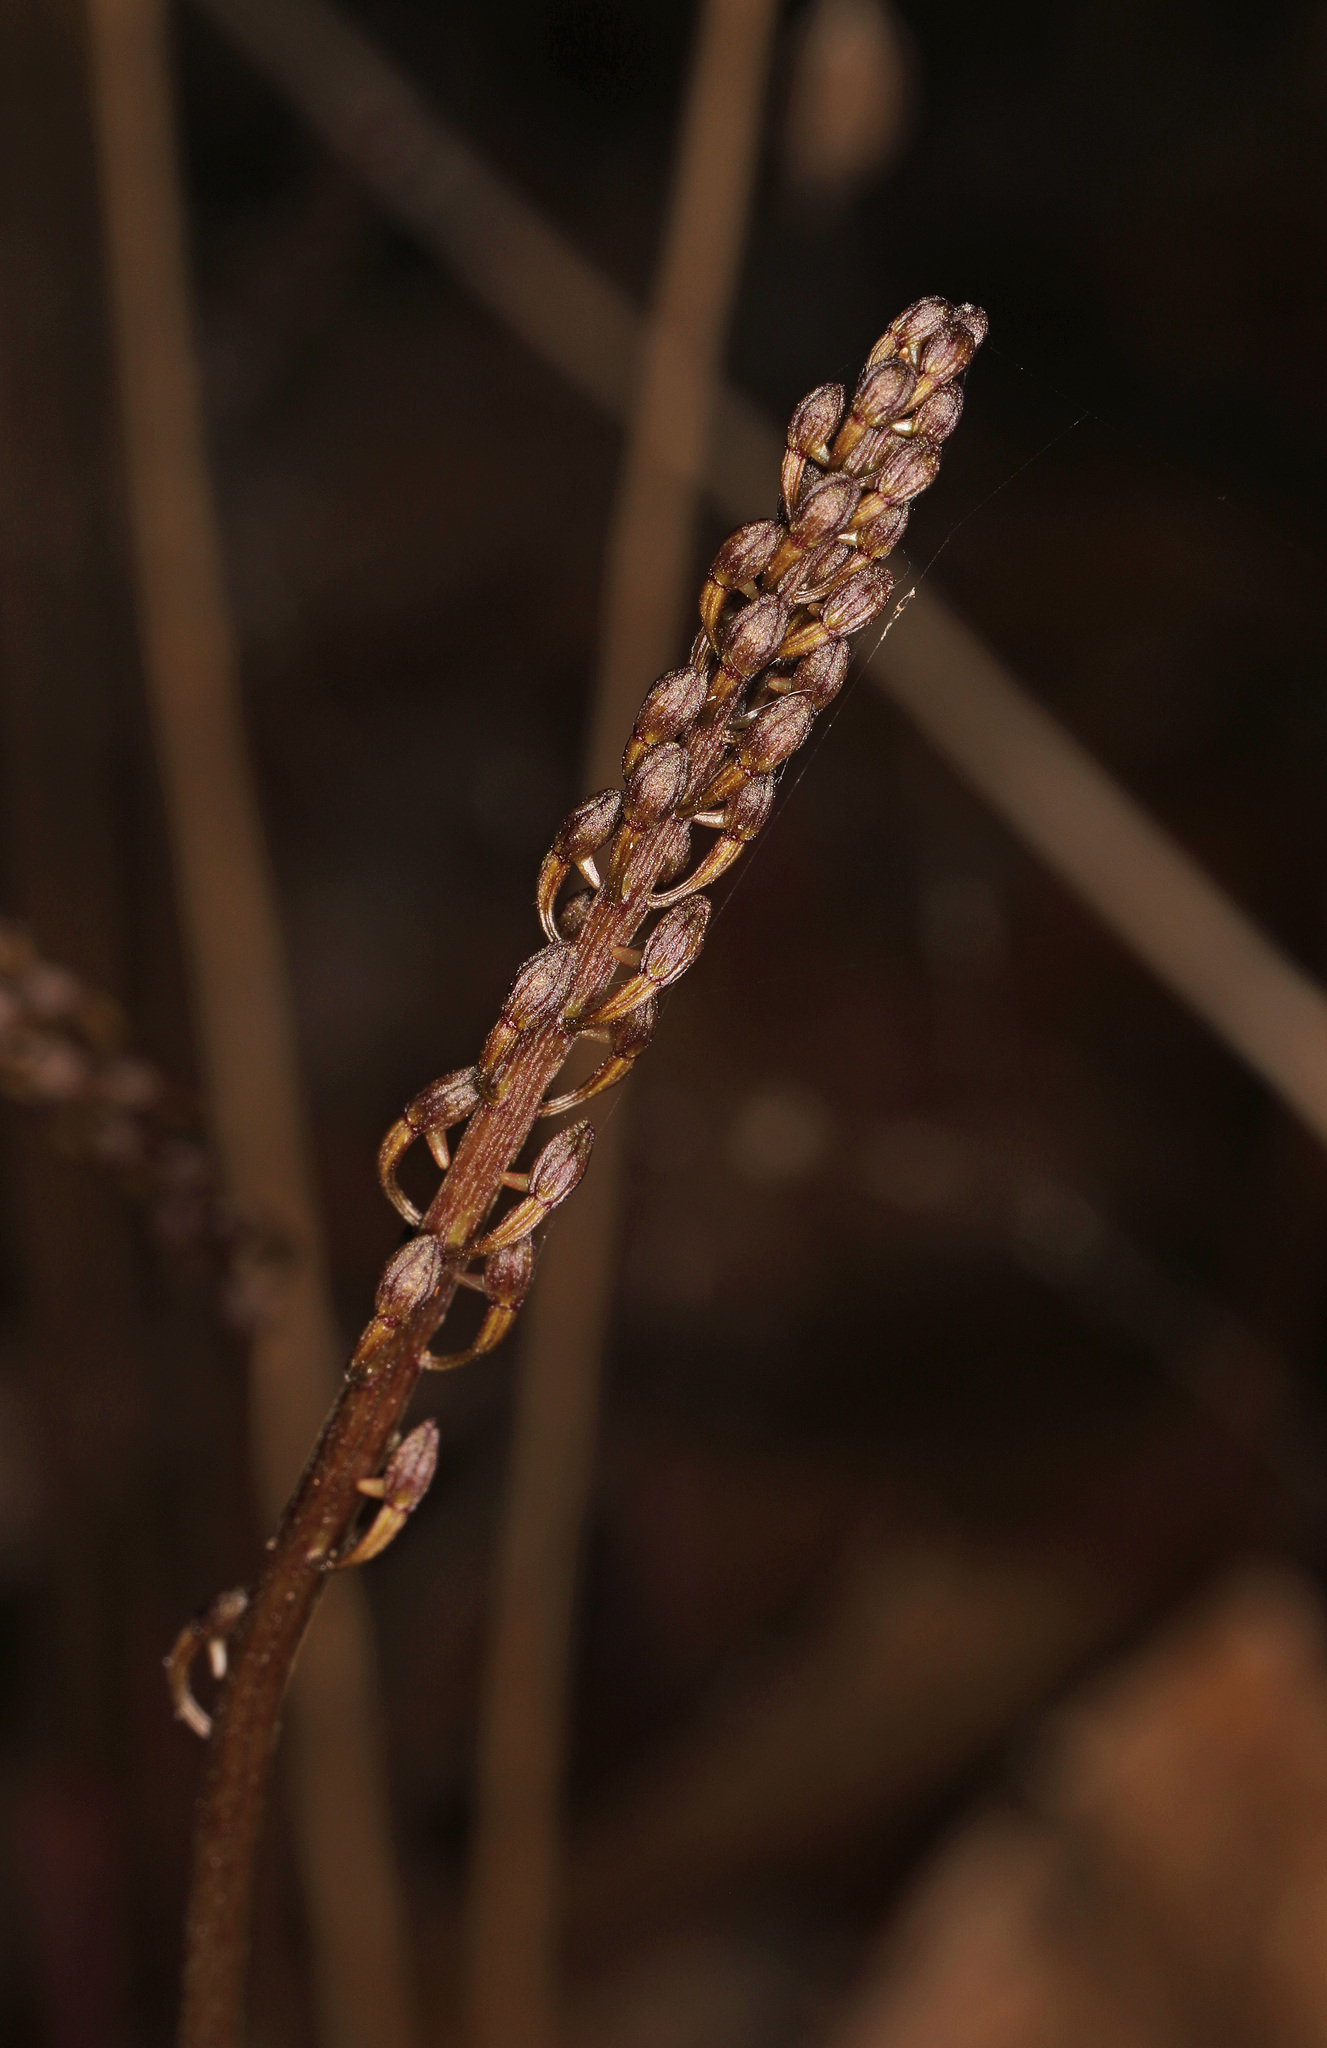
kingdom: Plantae
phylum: Tracheophyta
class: Liliopsida
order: Asparagales
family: Orchidaceae
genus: Tipularia
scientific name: Tipularia discolor
